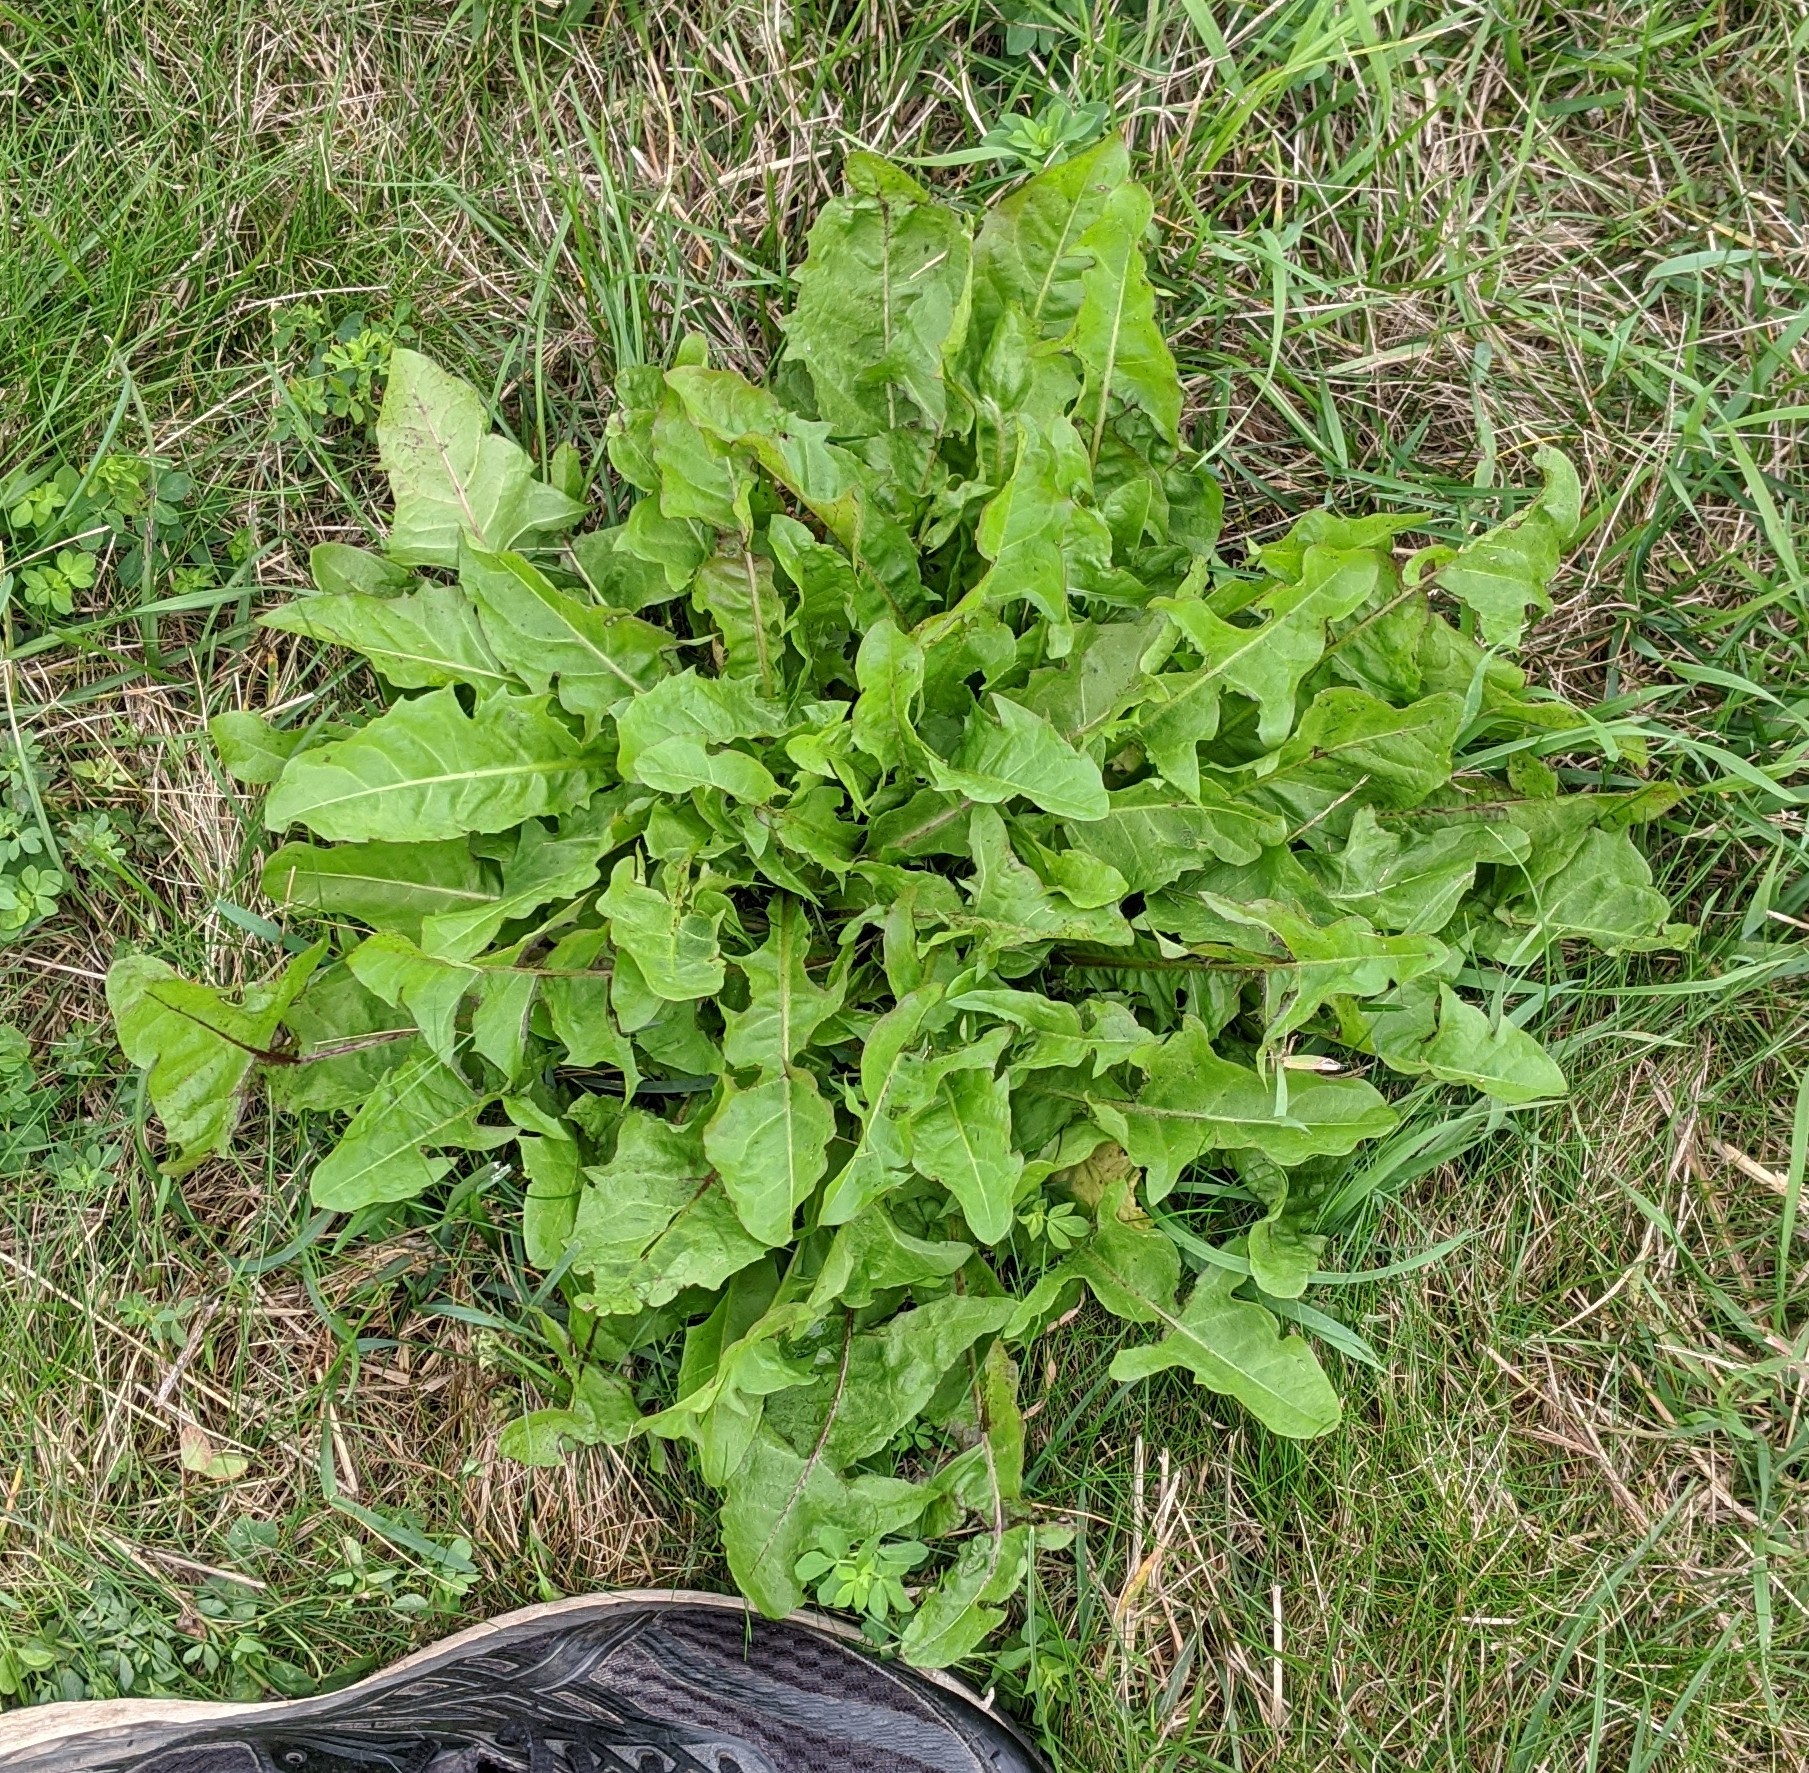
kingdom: Plantae
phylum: Tracheophyta
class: Magnoliopsida
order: Asterales
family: Asteraceae
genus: Taraxacum
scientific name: Taraxacum officinale
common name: Common dandelion
